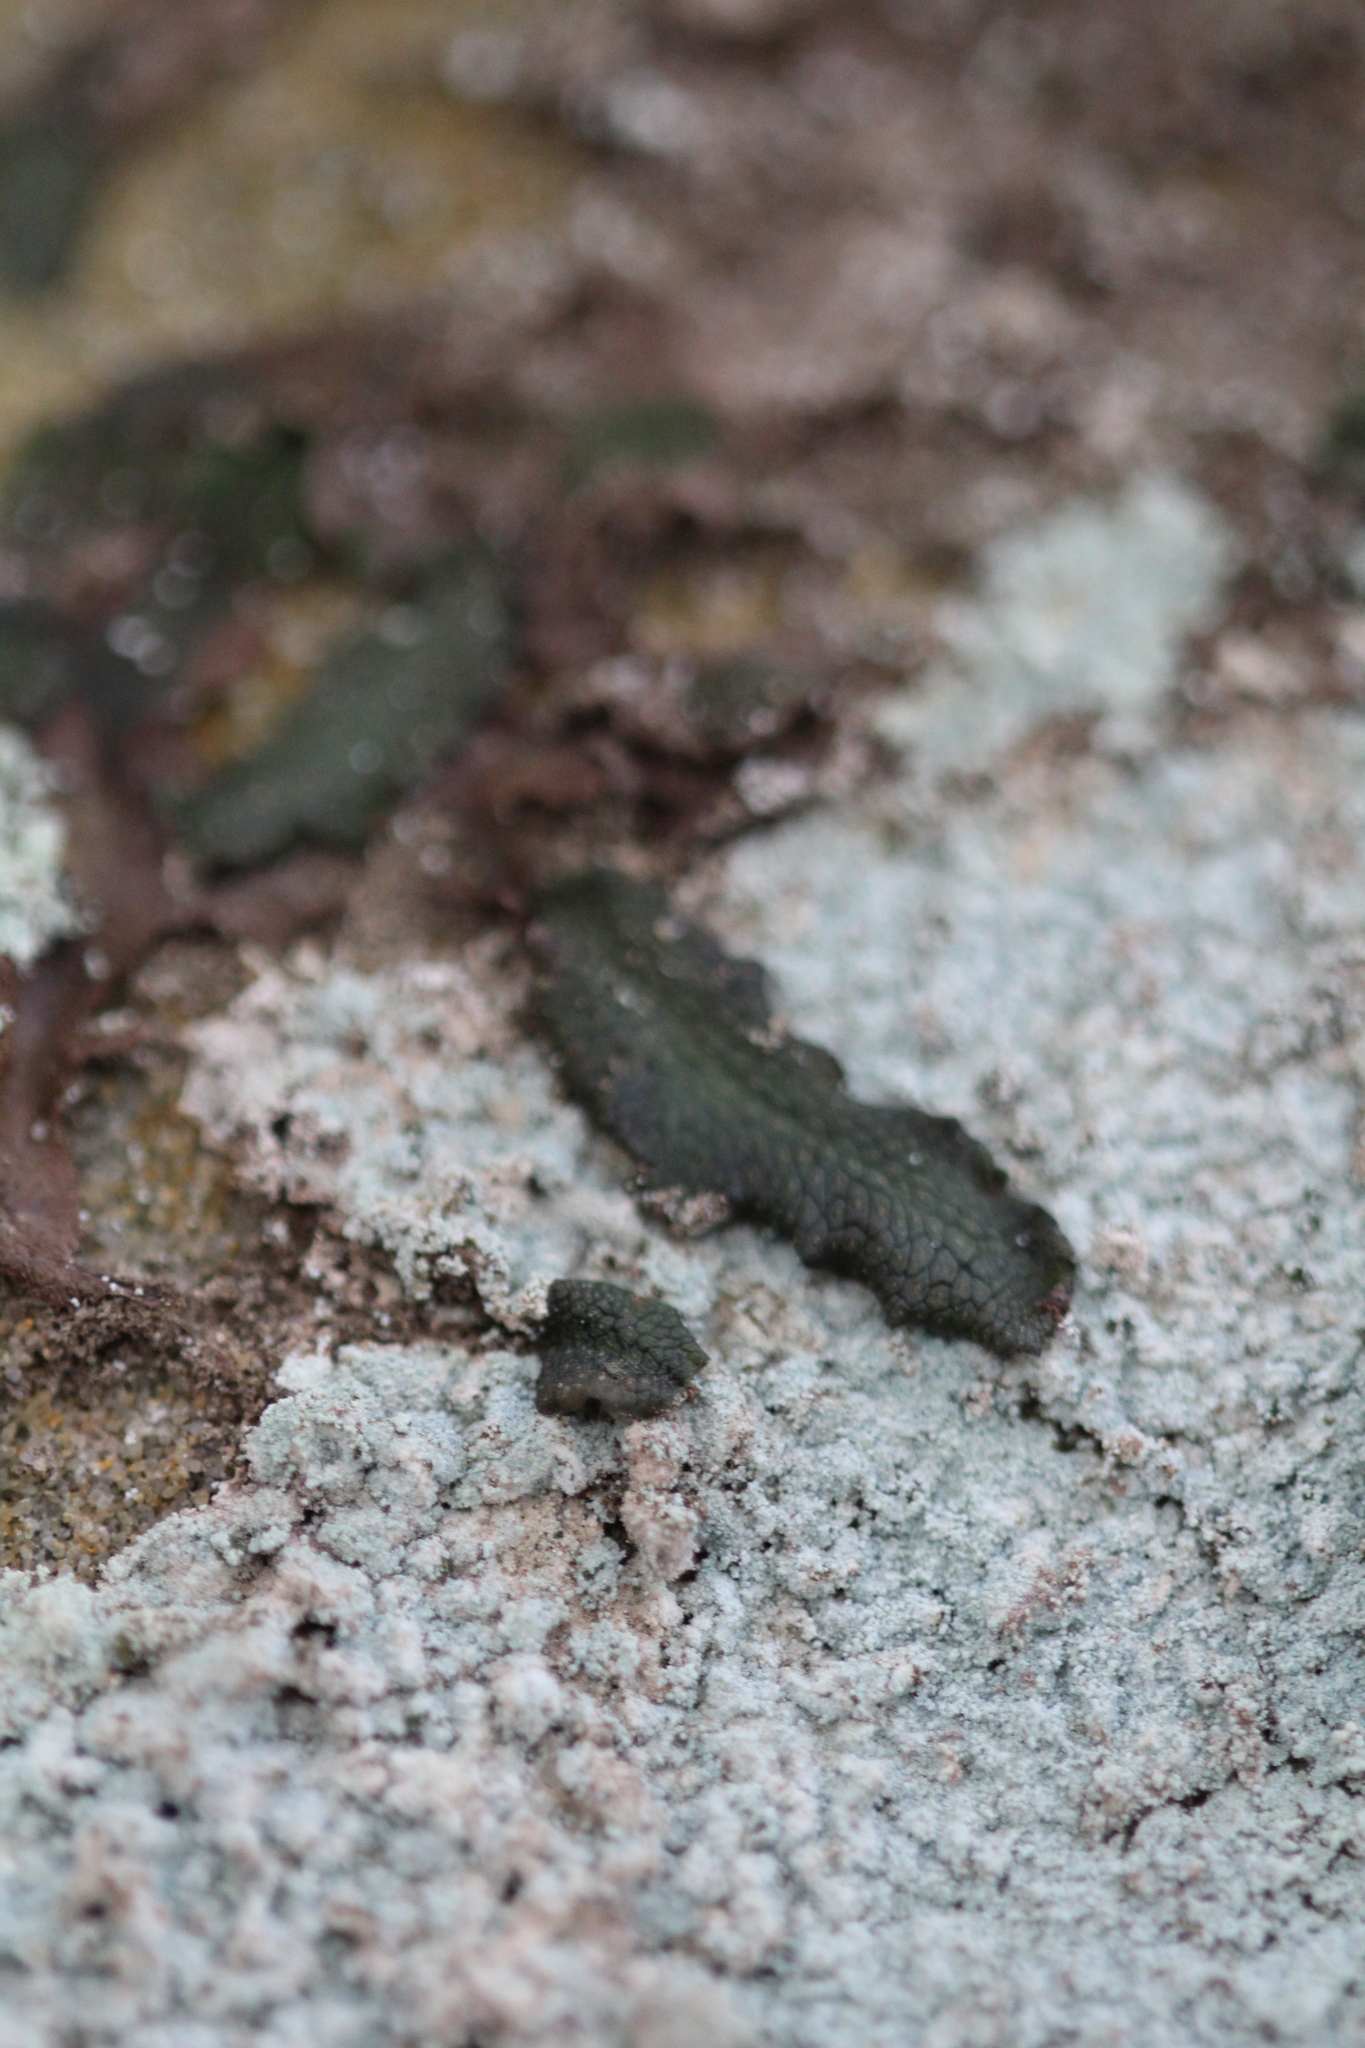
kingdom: Plantae
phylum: Marchantiophyta
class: Marchantiopsida
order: Marchantiales
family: Conocephalaceae
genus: Conocephalum
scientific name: Conocephalum salebrosum
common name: Cat-tongue liverwort
